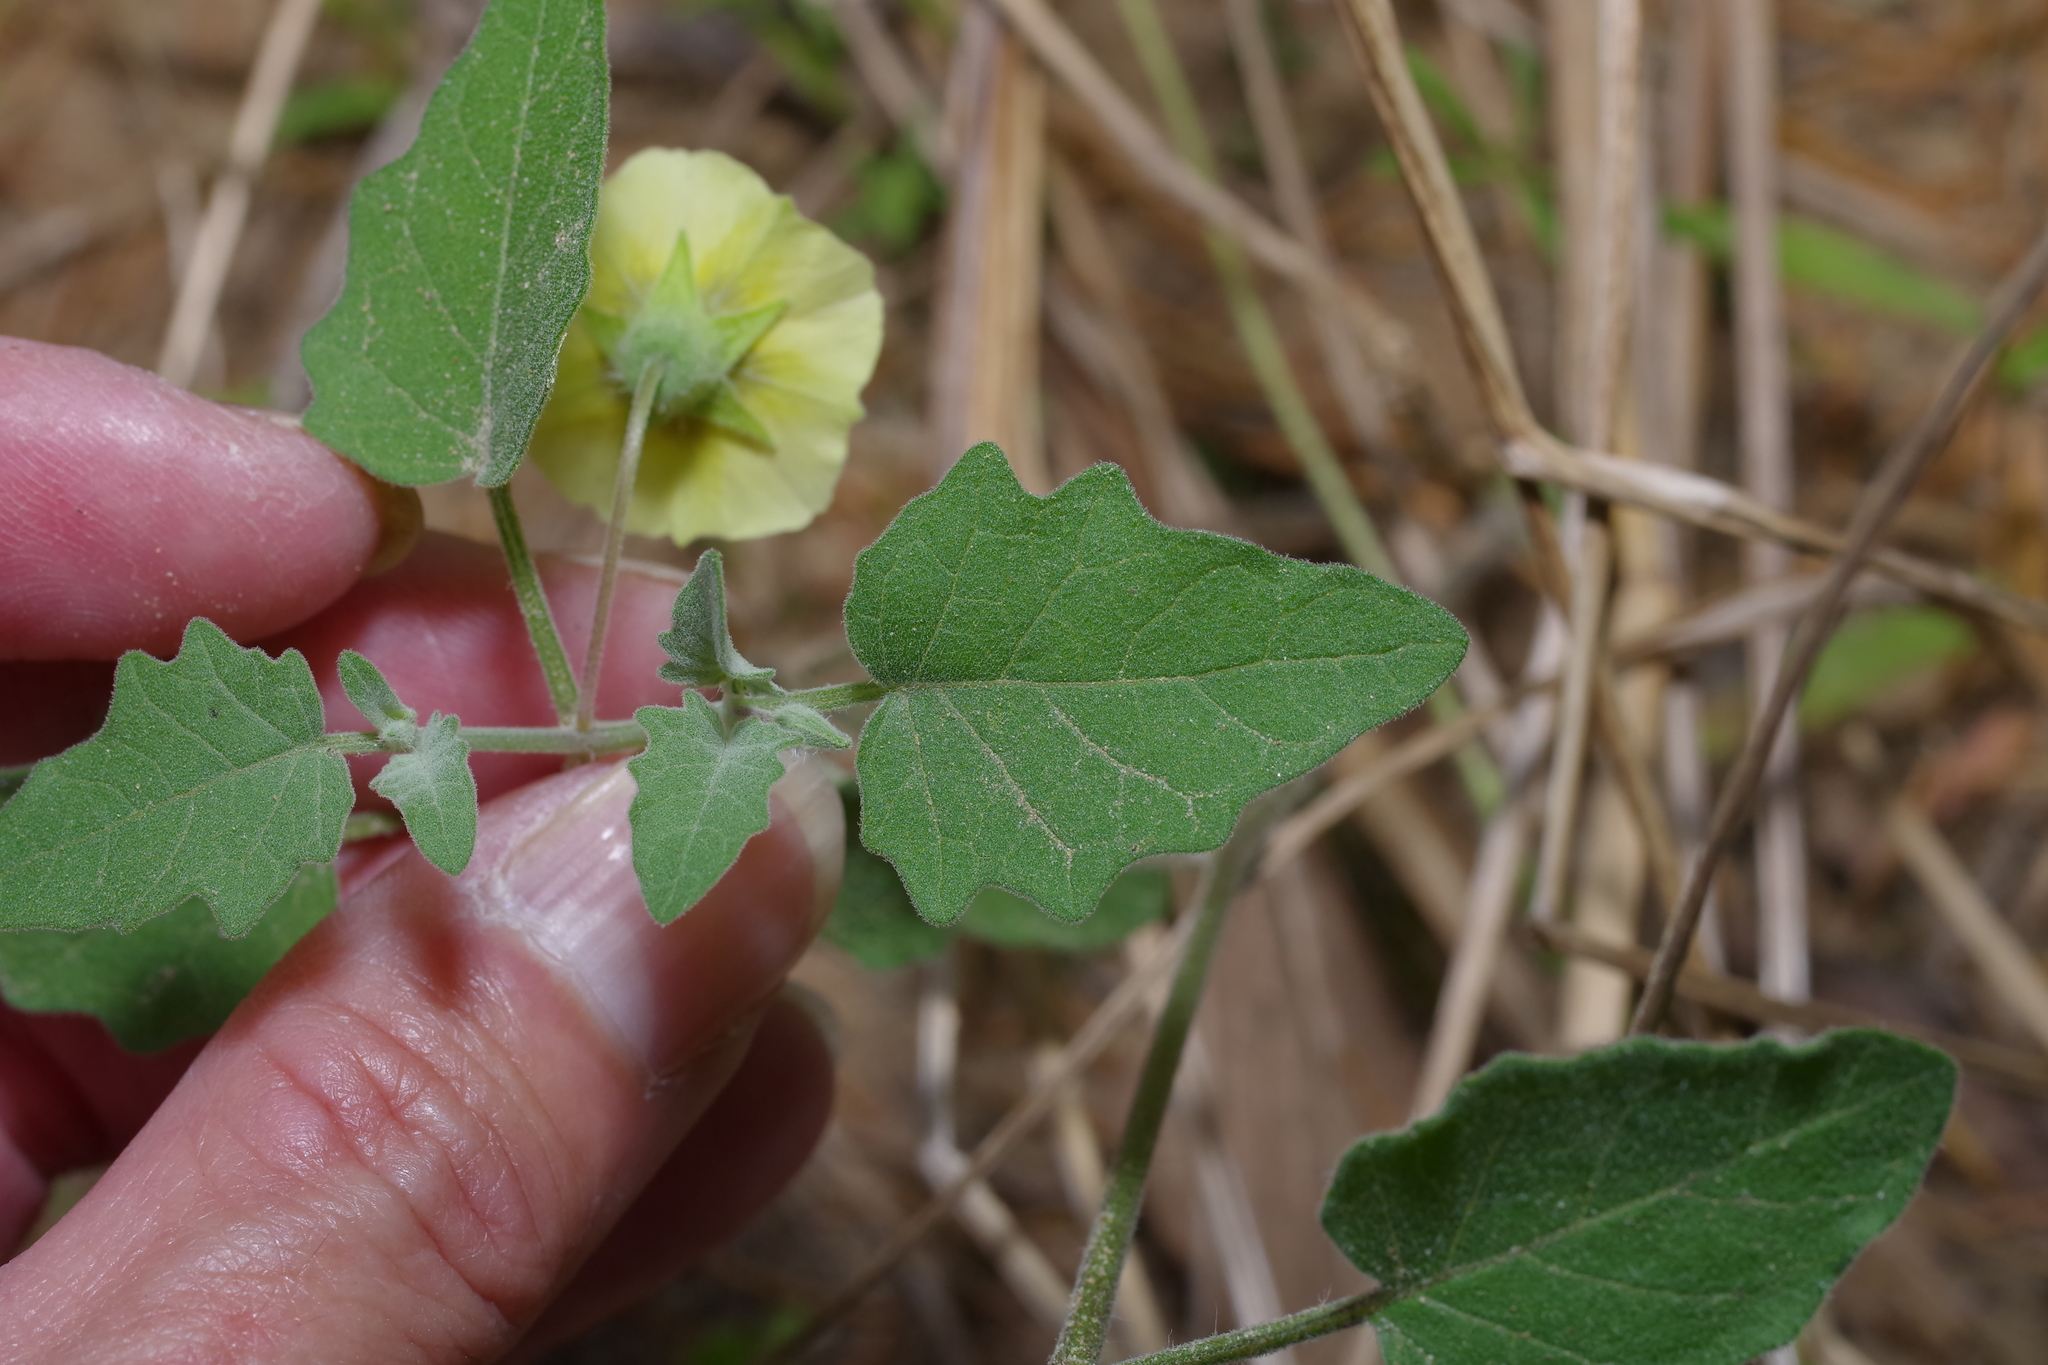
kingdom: Plantae
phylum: Tracheophyta
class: Magnoliopsida
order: Solanales
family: Solanaceae
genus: Physalis
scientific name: Physalis cinerascens
